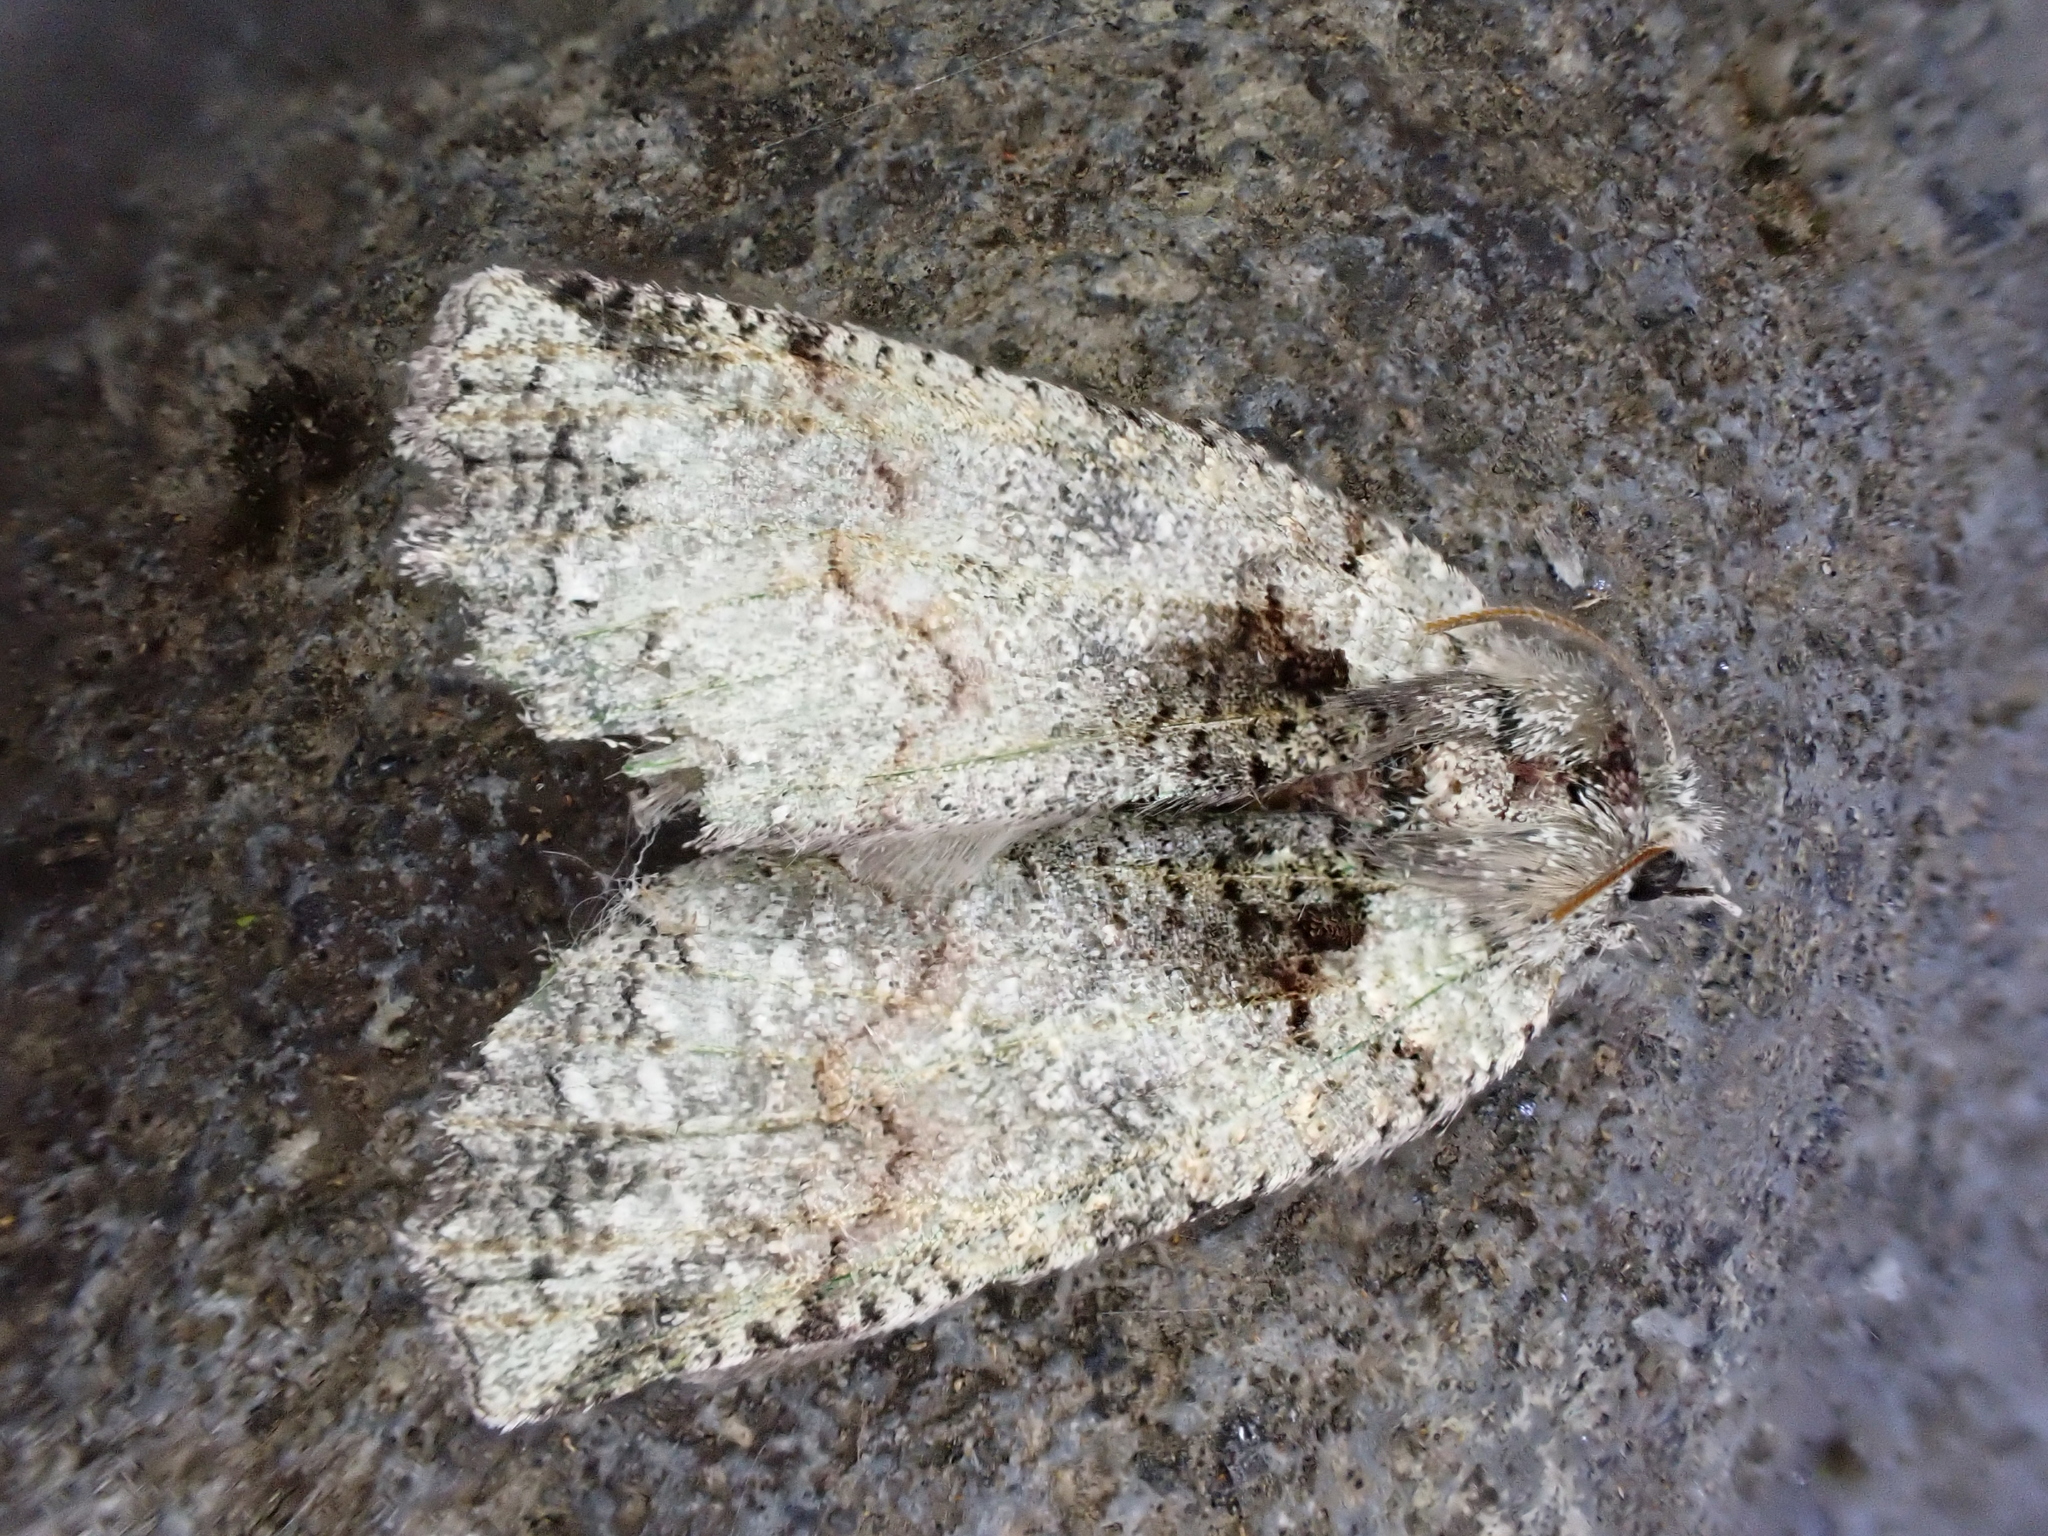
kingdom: Animalia
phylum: Arthropoda
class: Insecta
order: Lepidoptera
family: Geometridae
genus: Declana
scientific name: Declana floccosa
